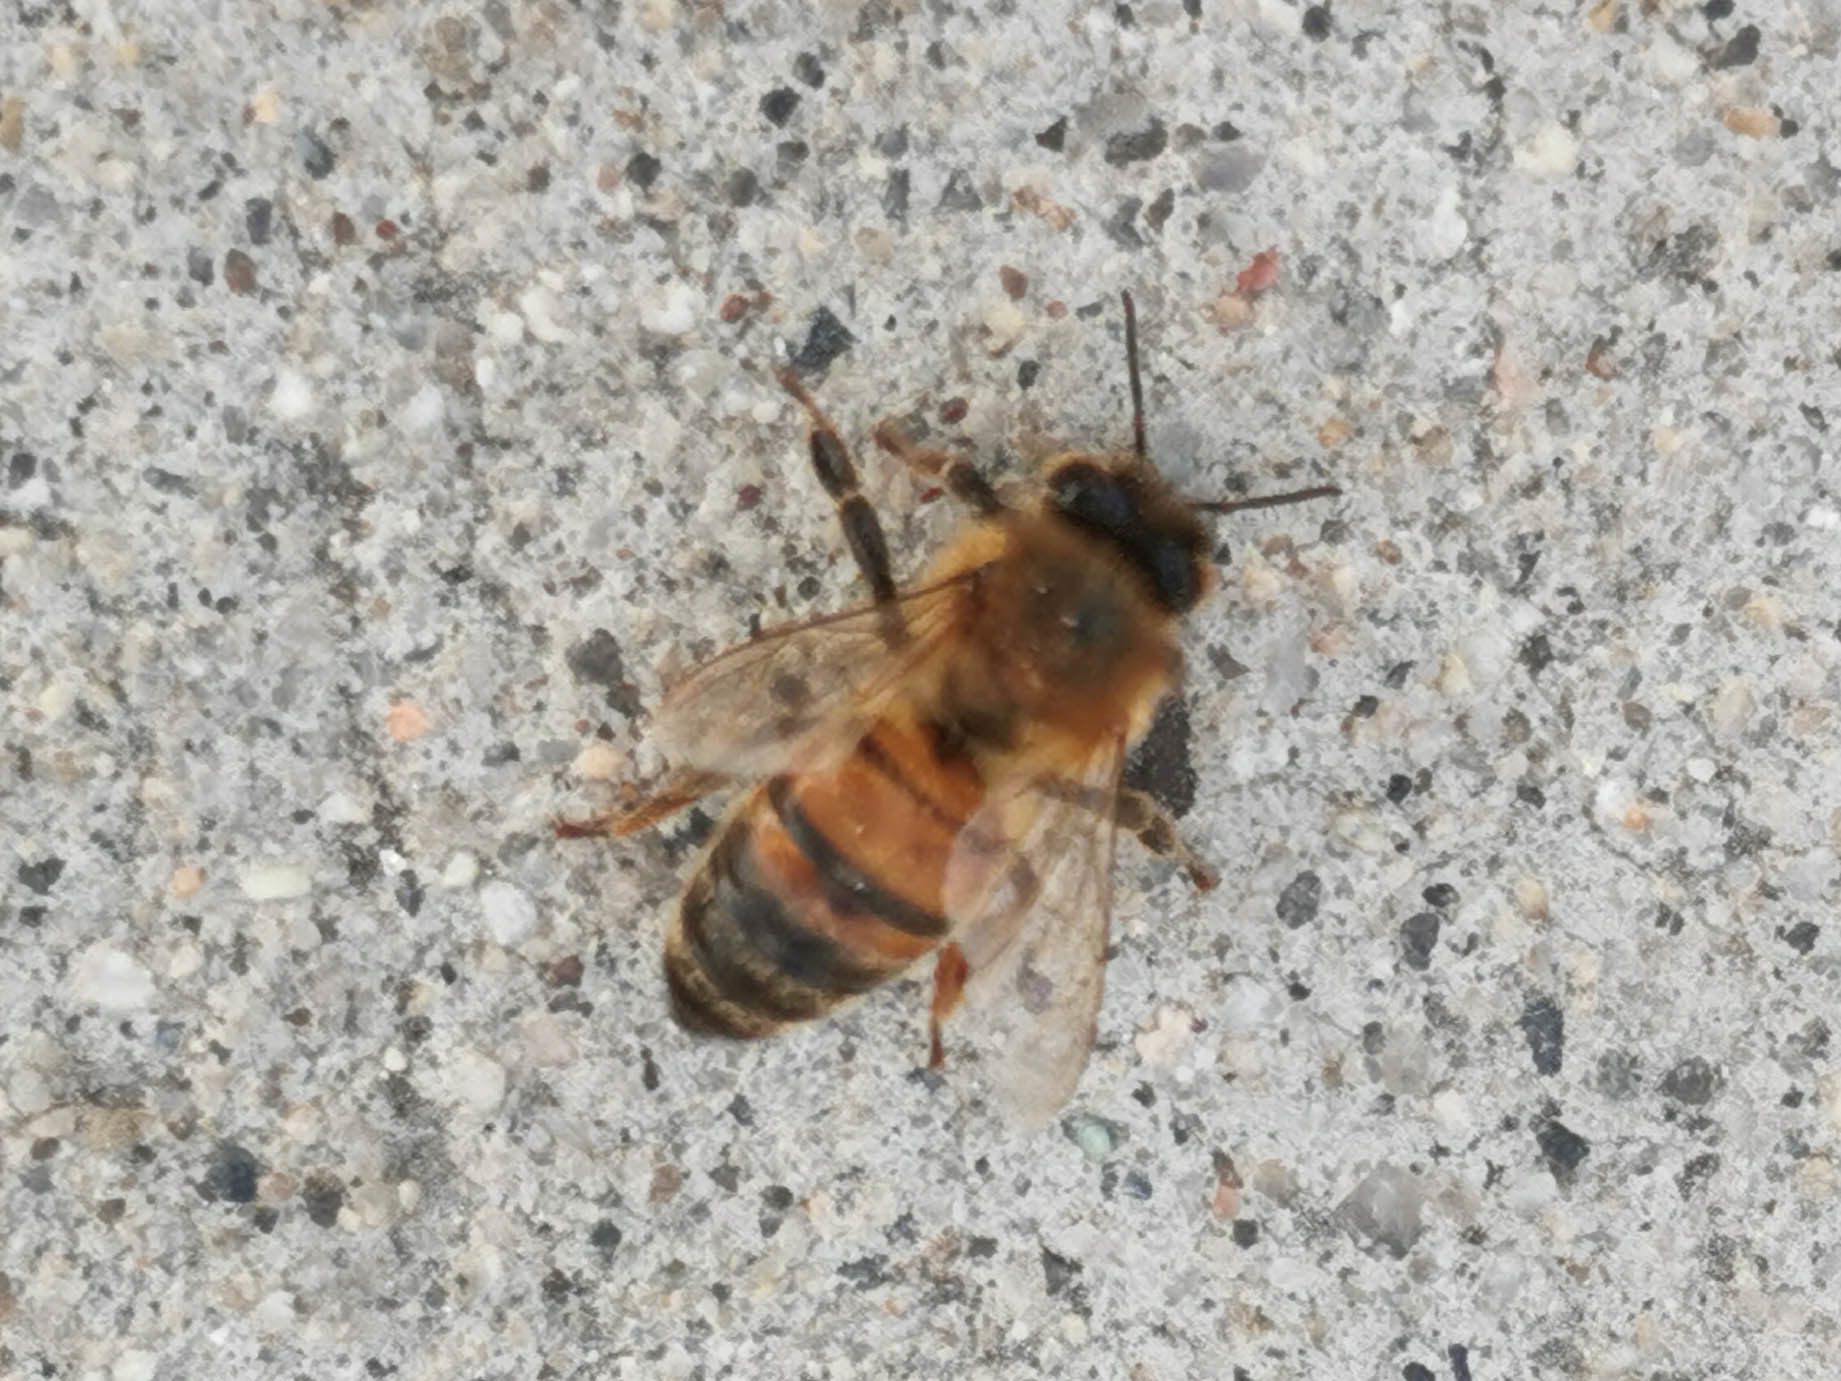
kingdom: Animalia
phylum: Arthropoda
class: Insecta
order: Hymenoptera
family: Apidae
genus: Apis
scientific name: Apis mellifera
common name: Honey bee
